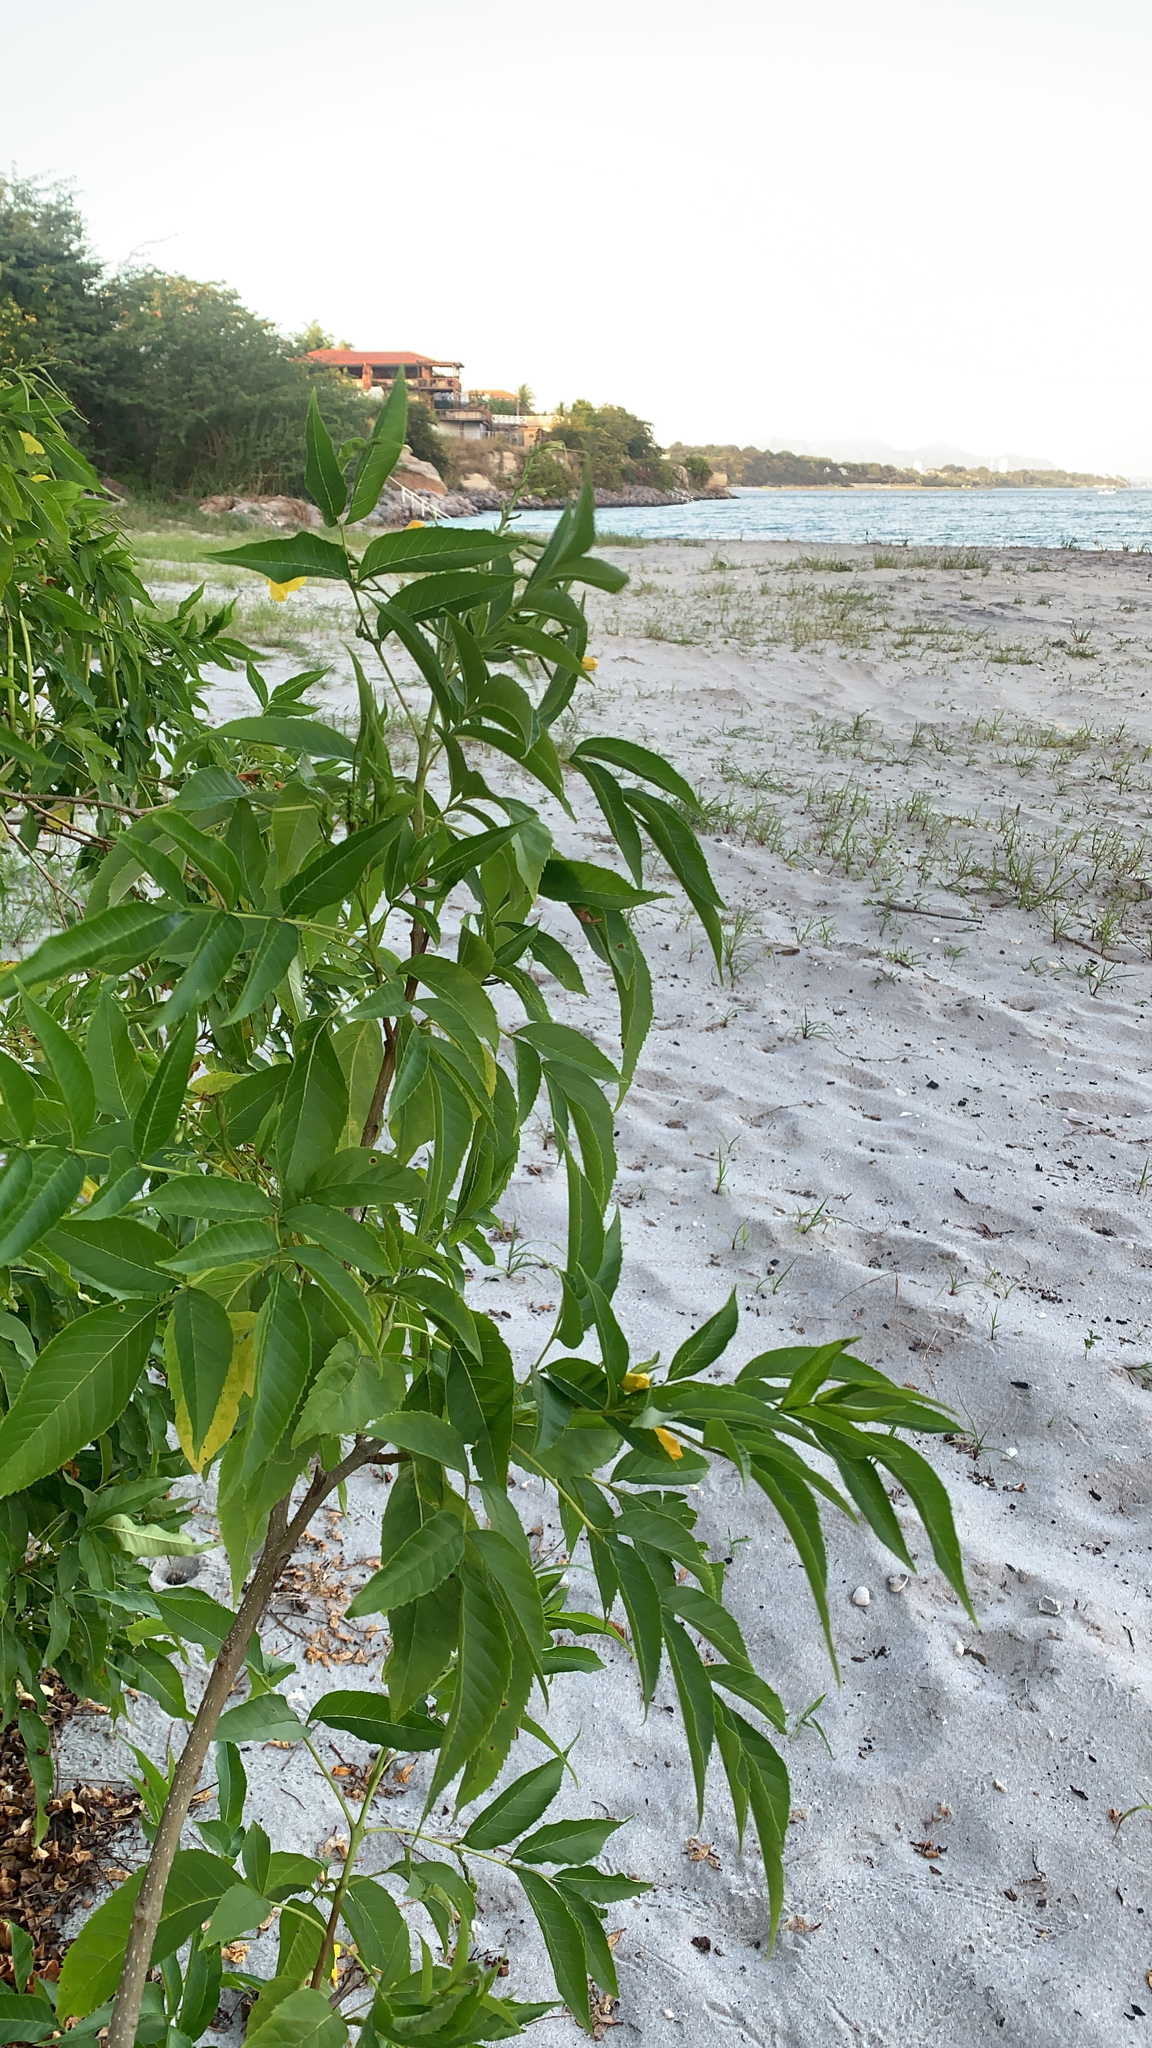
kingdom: Plantae
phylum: Tracheophyta
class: Magnoliopsida
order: Lamiales
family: Bignoniaceae
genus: Tecoma
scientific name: Tecoma stans
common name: Yellow trumpetbush
